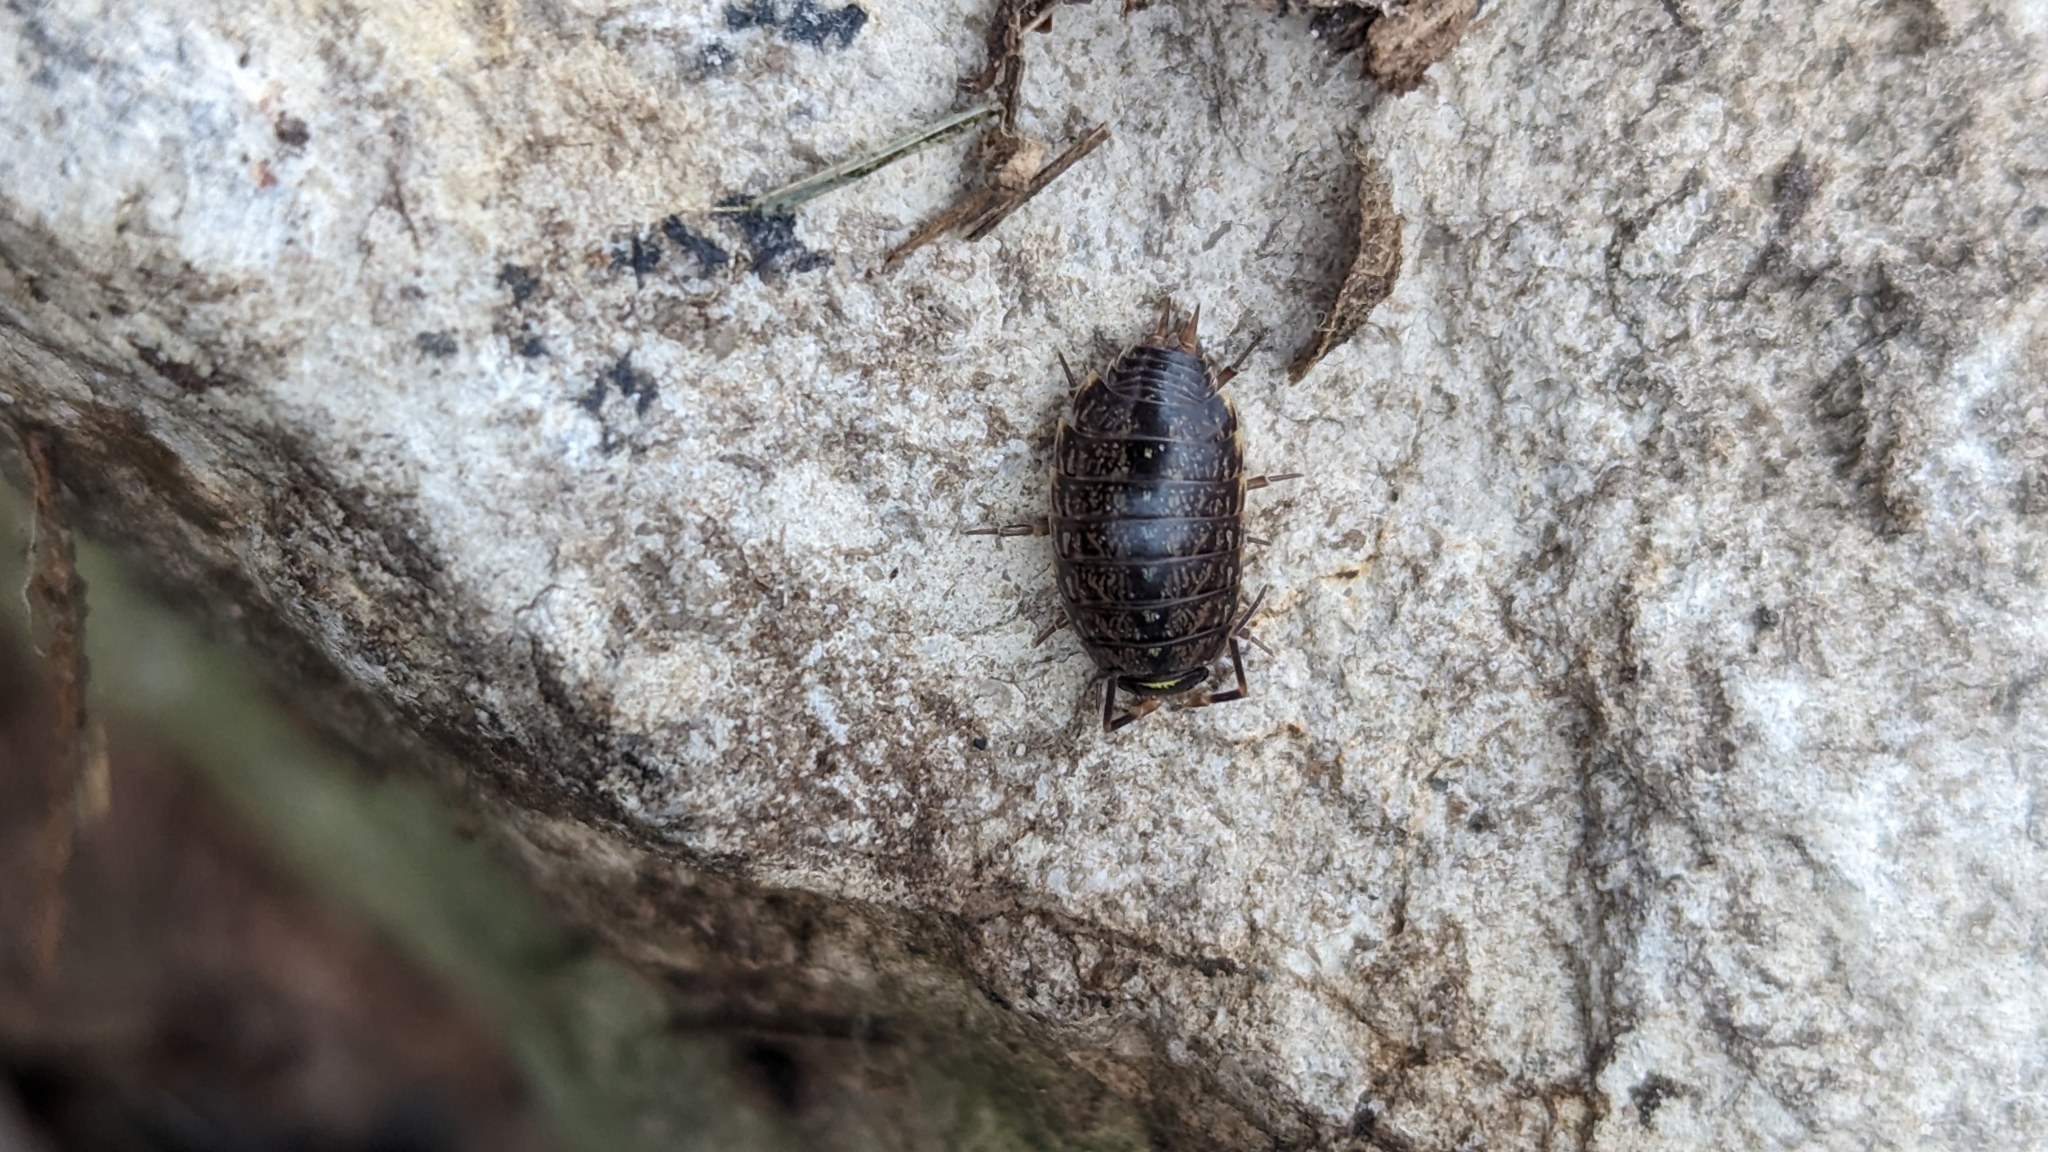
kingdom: Animalia
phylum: Arthropoda
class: Malacostraca
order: Isopoda
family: Philosciidae
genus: Philoscia
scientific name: Philoscia muscorum
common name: Common striped woodlouse
